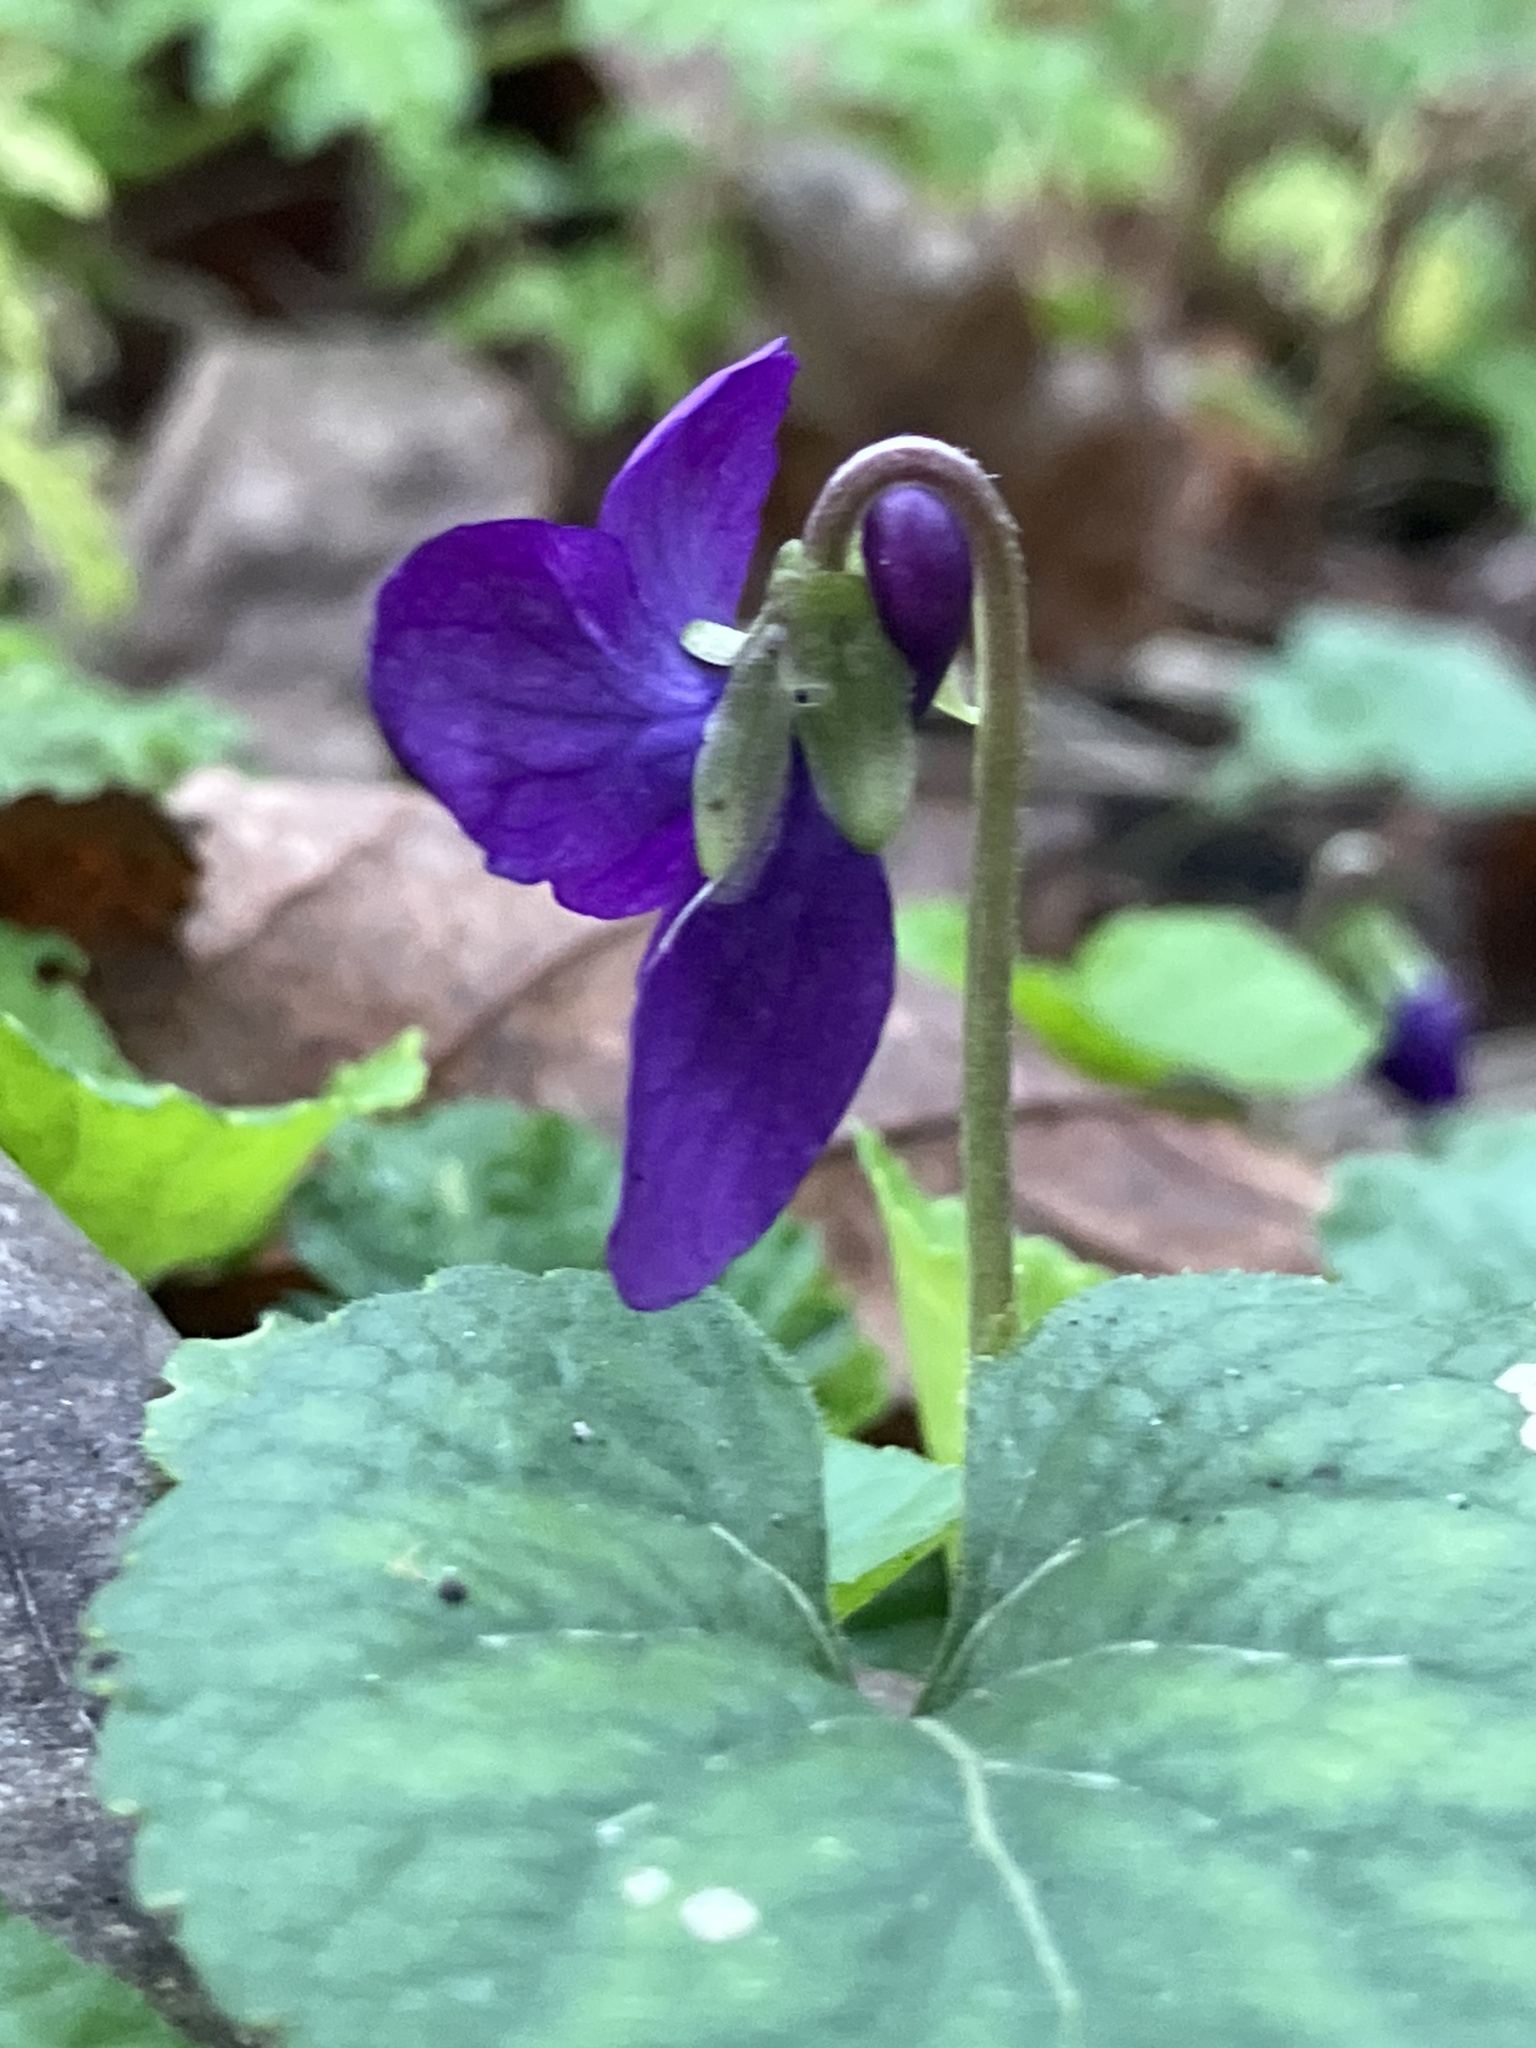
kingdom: Plantae
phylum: Tracheophyta
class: Magnoliopsida
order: Malpighiales
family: Violaceae
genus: Viola
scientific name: Viola odorata
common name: Sweet violet
